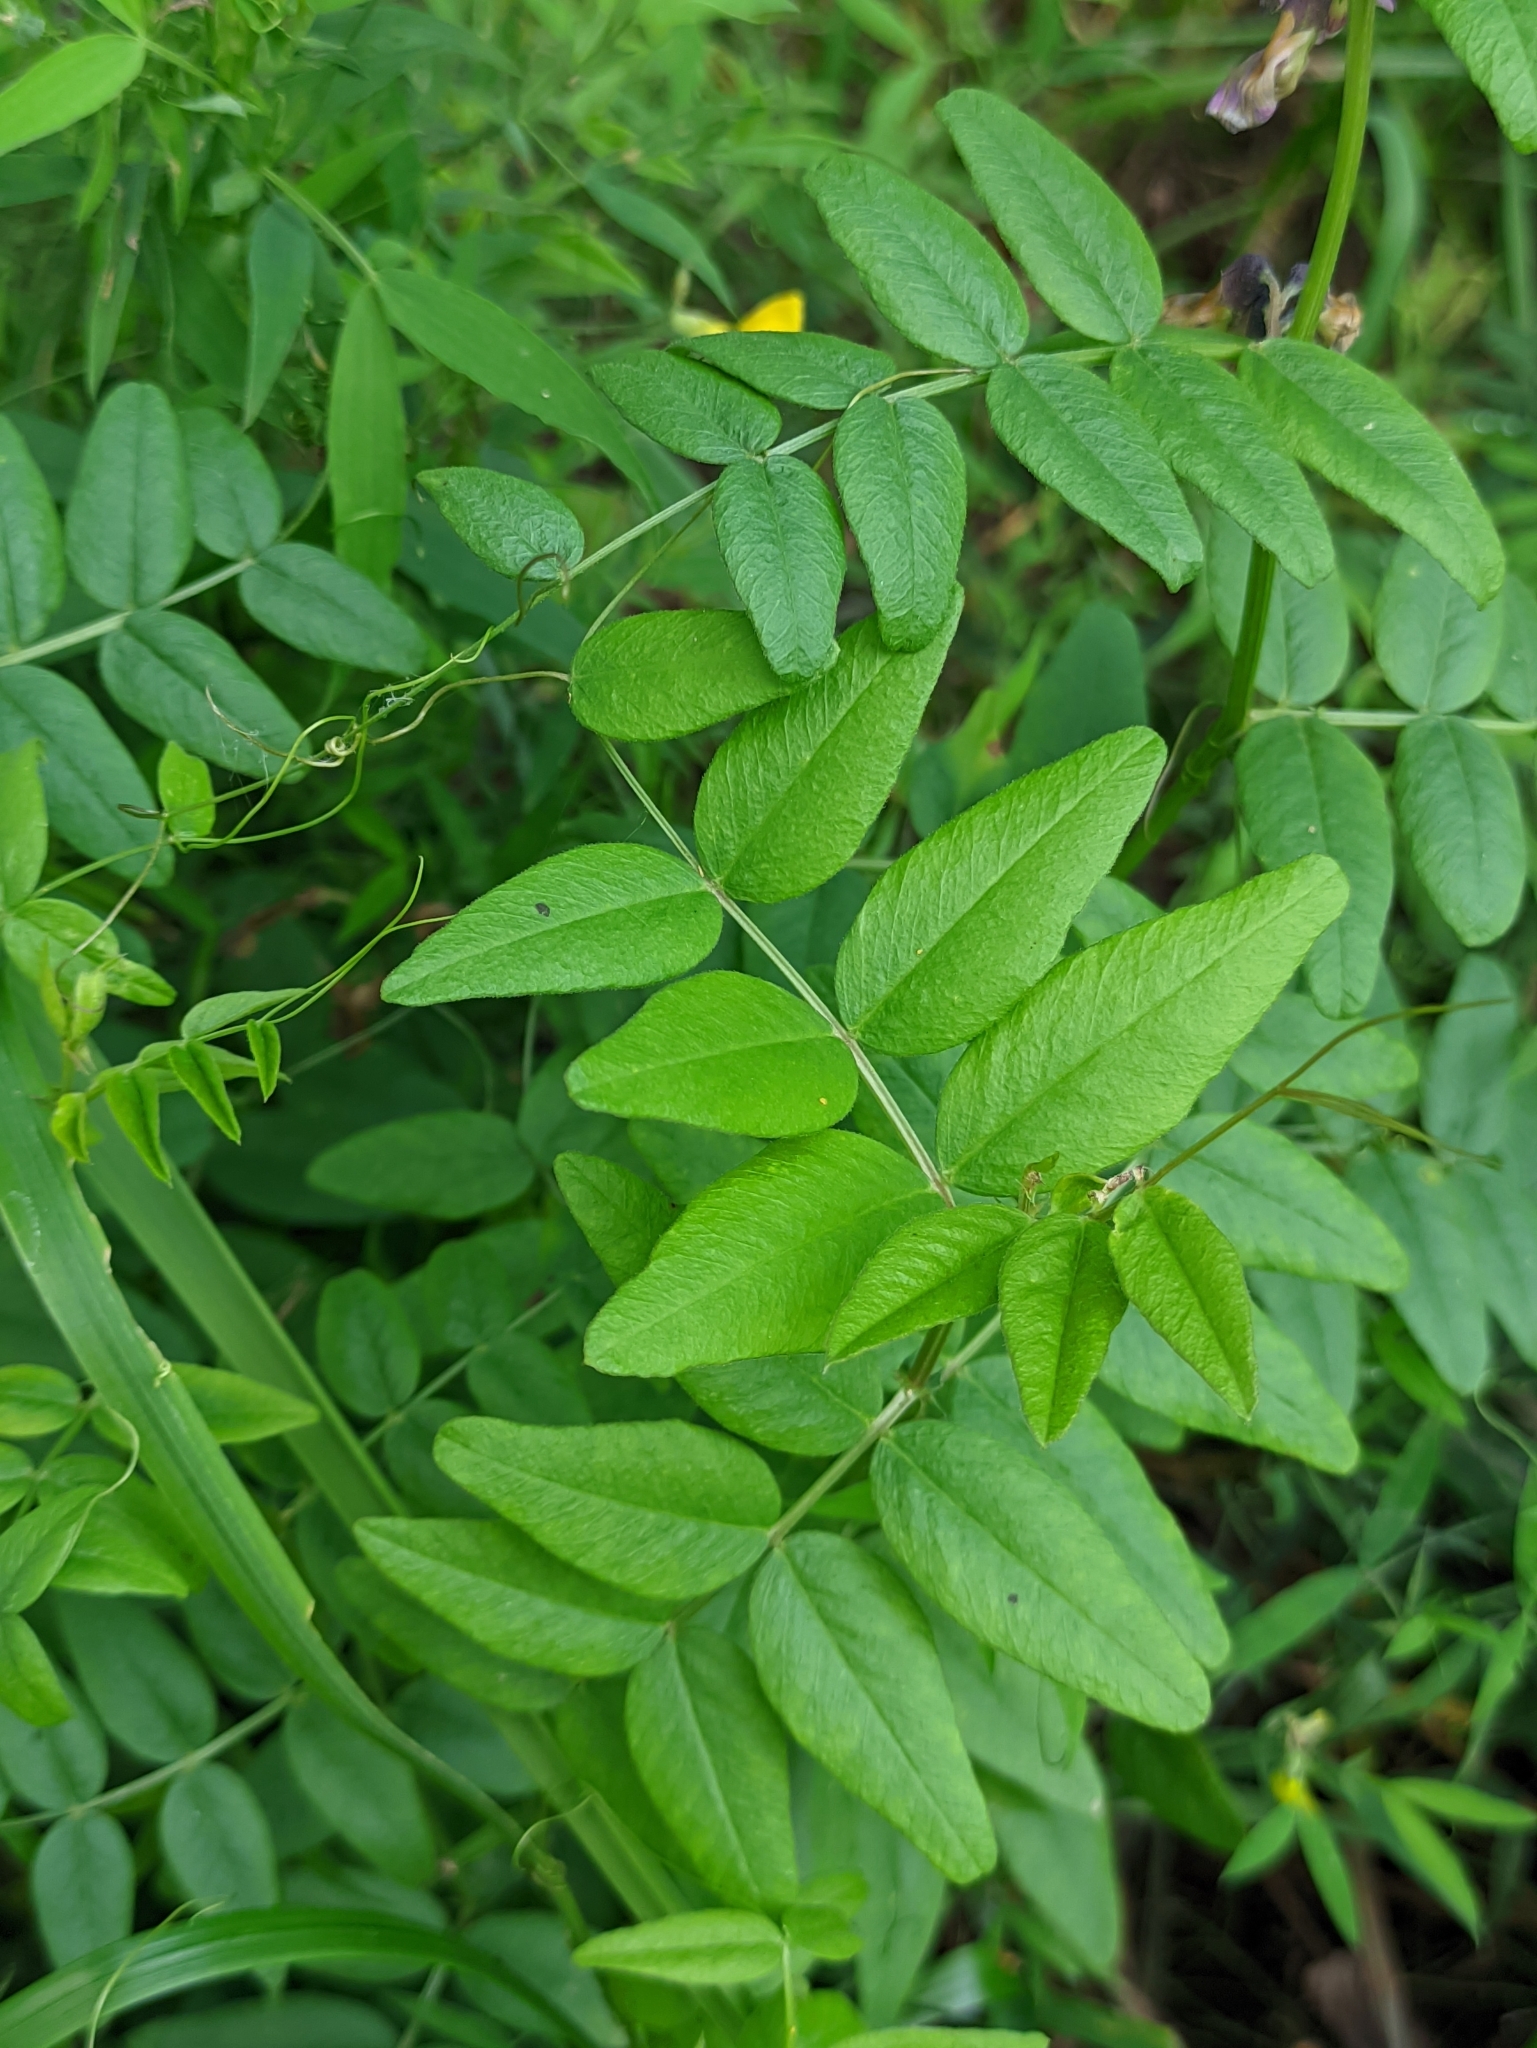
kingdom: Plantae
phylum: Tracheophyta
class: Magnoliopsida
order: Fabales
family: Fabaceae
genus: Vicia
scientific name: Vicia sepium
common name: Bush vetch
